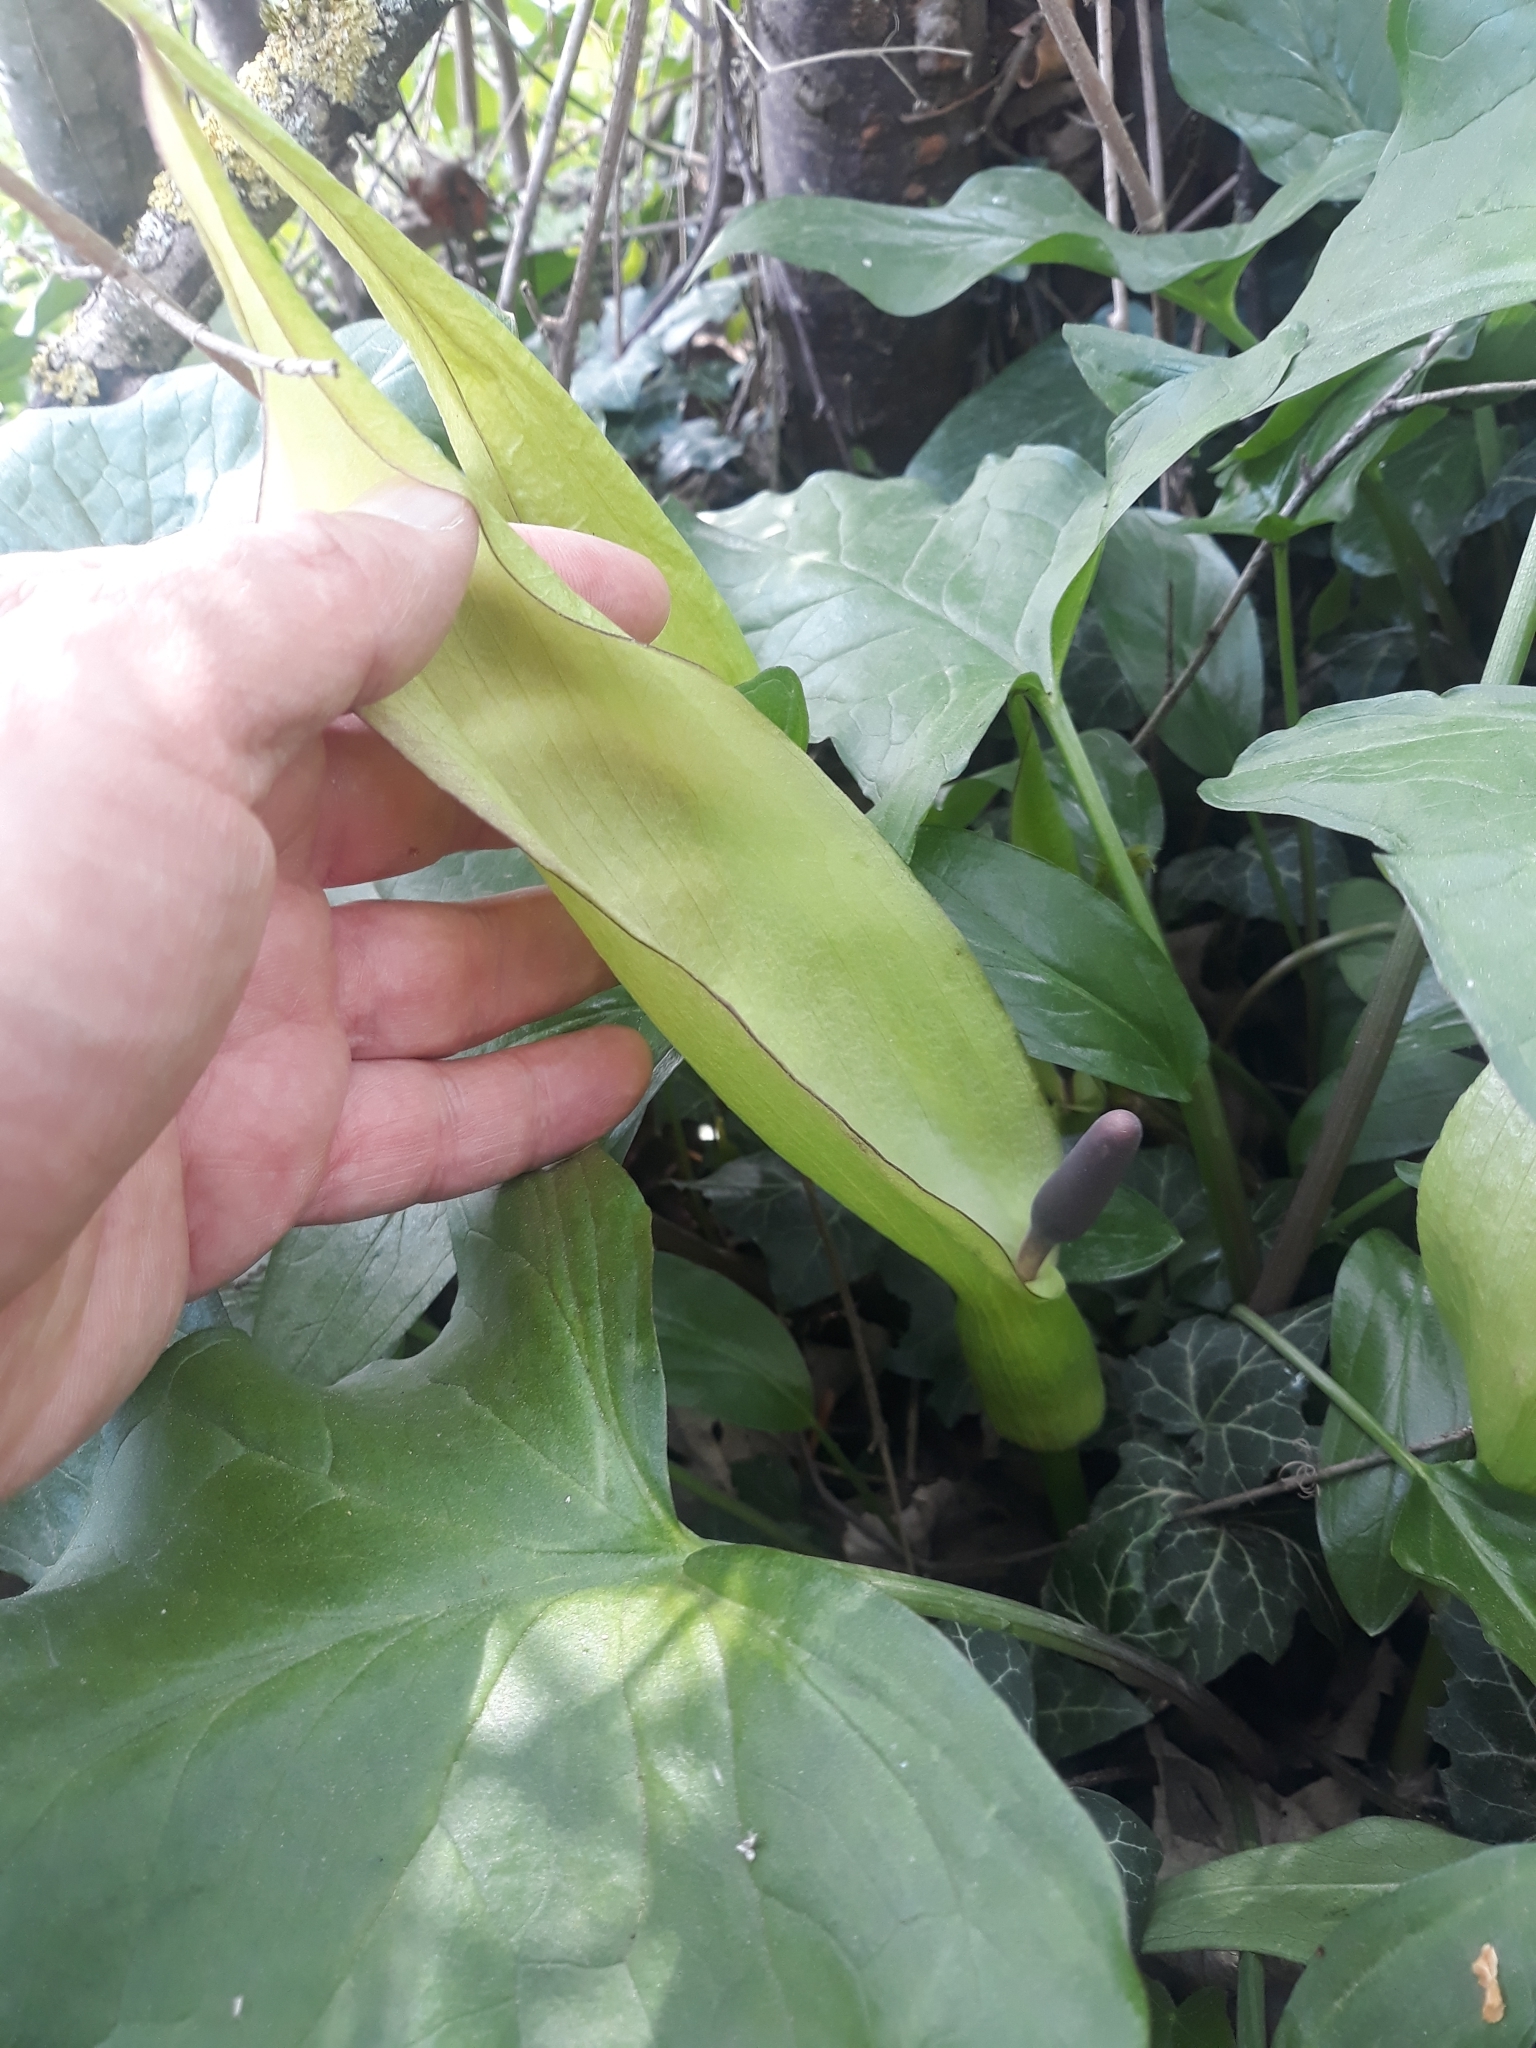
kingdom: Plantae
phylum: Tracheophyta
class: Liliopsida
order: Alismatales
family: Araceae
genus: Arum
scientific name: Arum maculatum
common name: Lords-and-ladies
